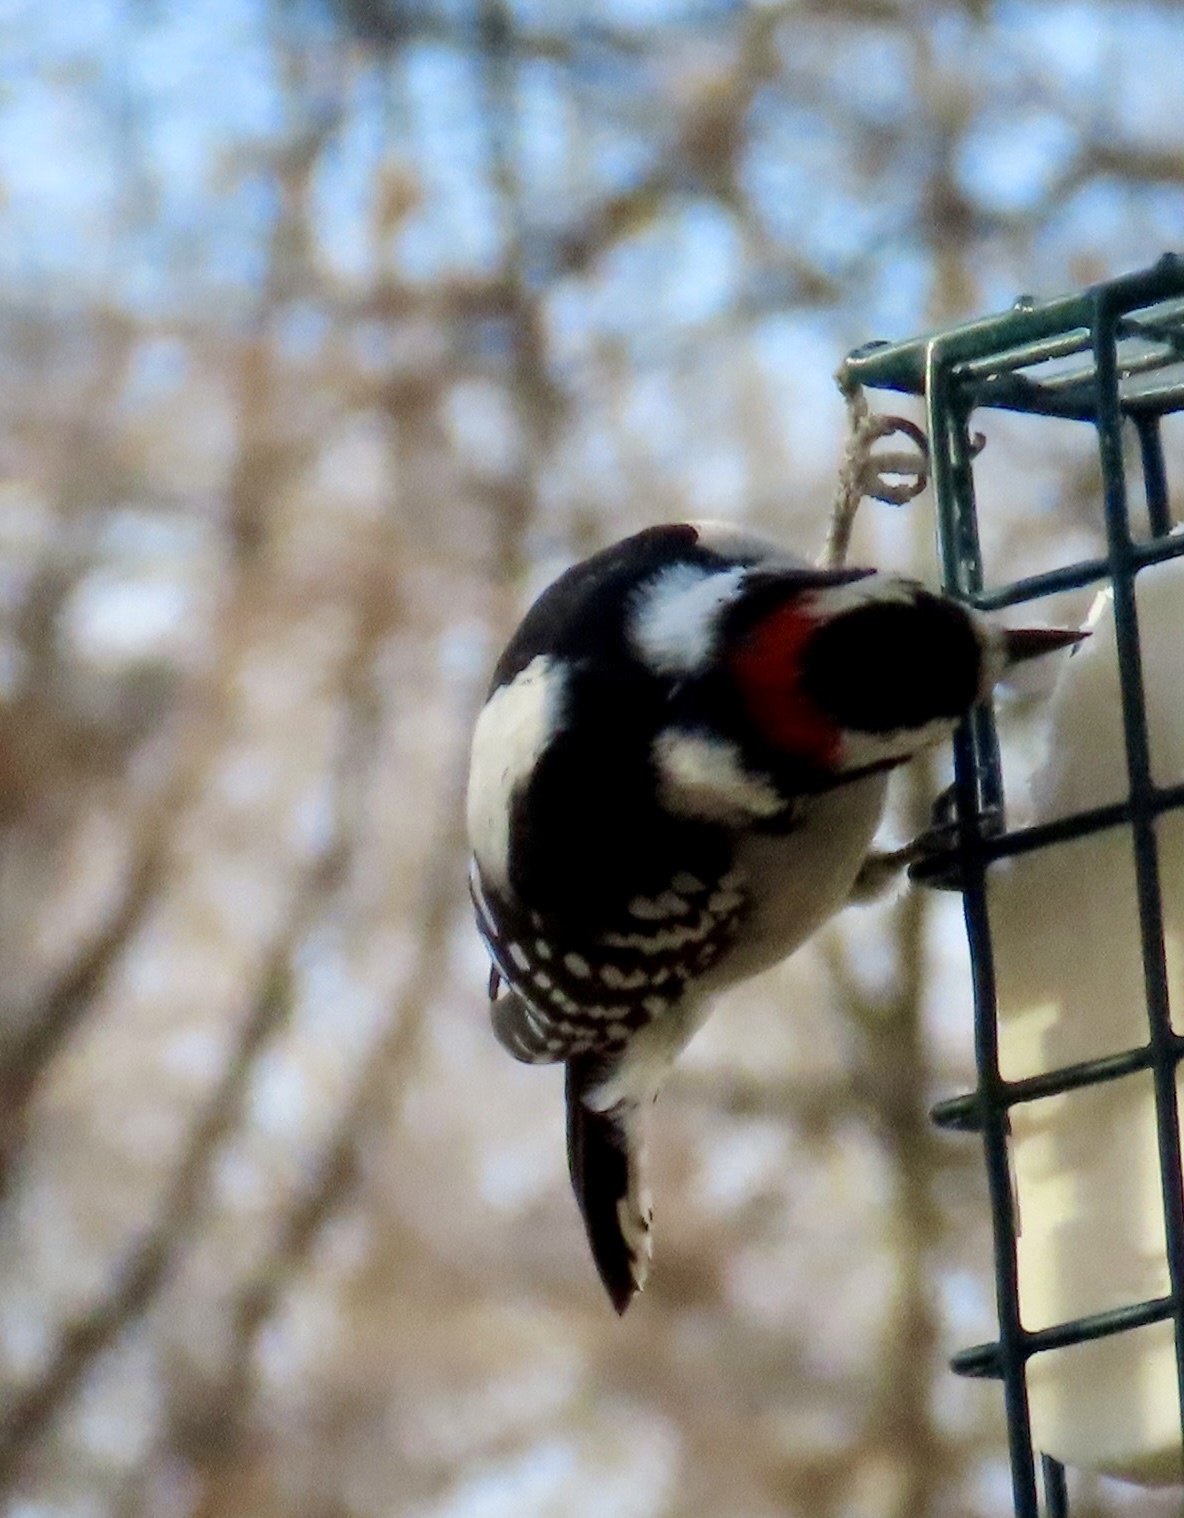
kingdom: Animalia
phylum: Chordata
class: Aves
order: Piciformes
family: Picidae
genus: Dryobates
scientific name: Dryobates pubescens
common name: Downy woodpecker
